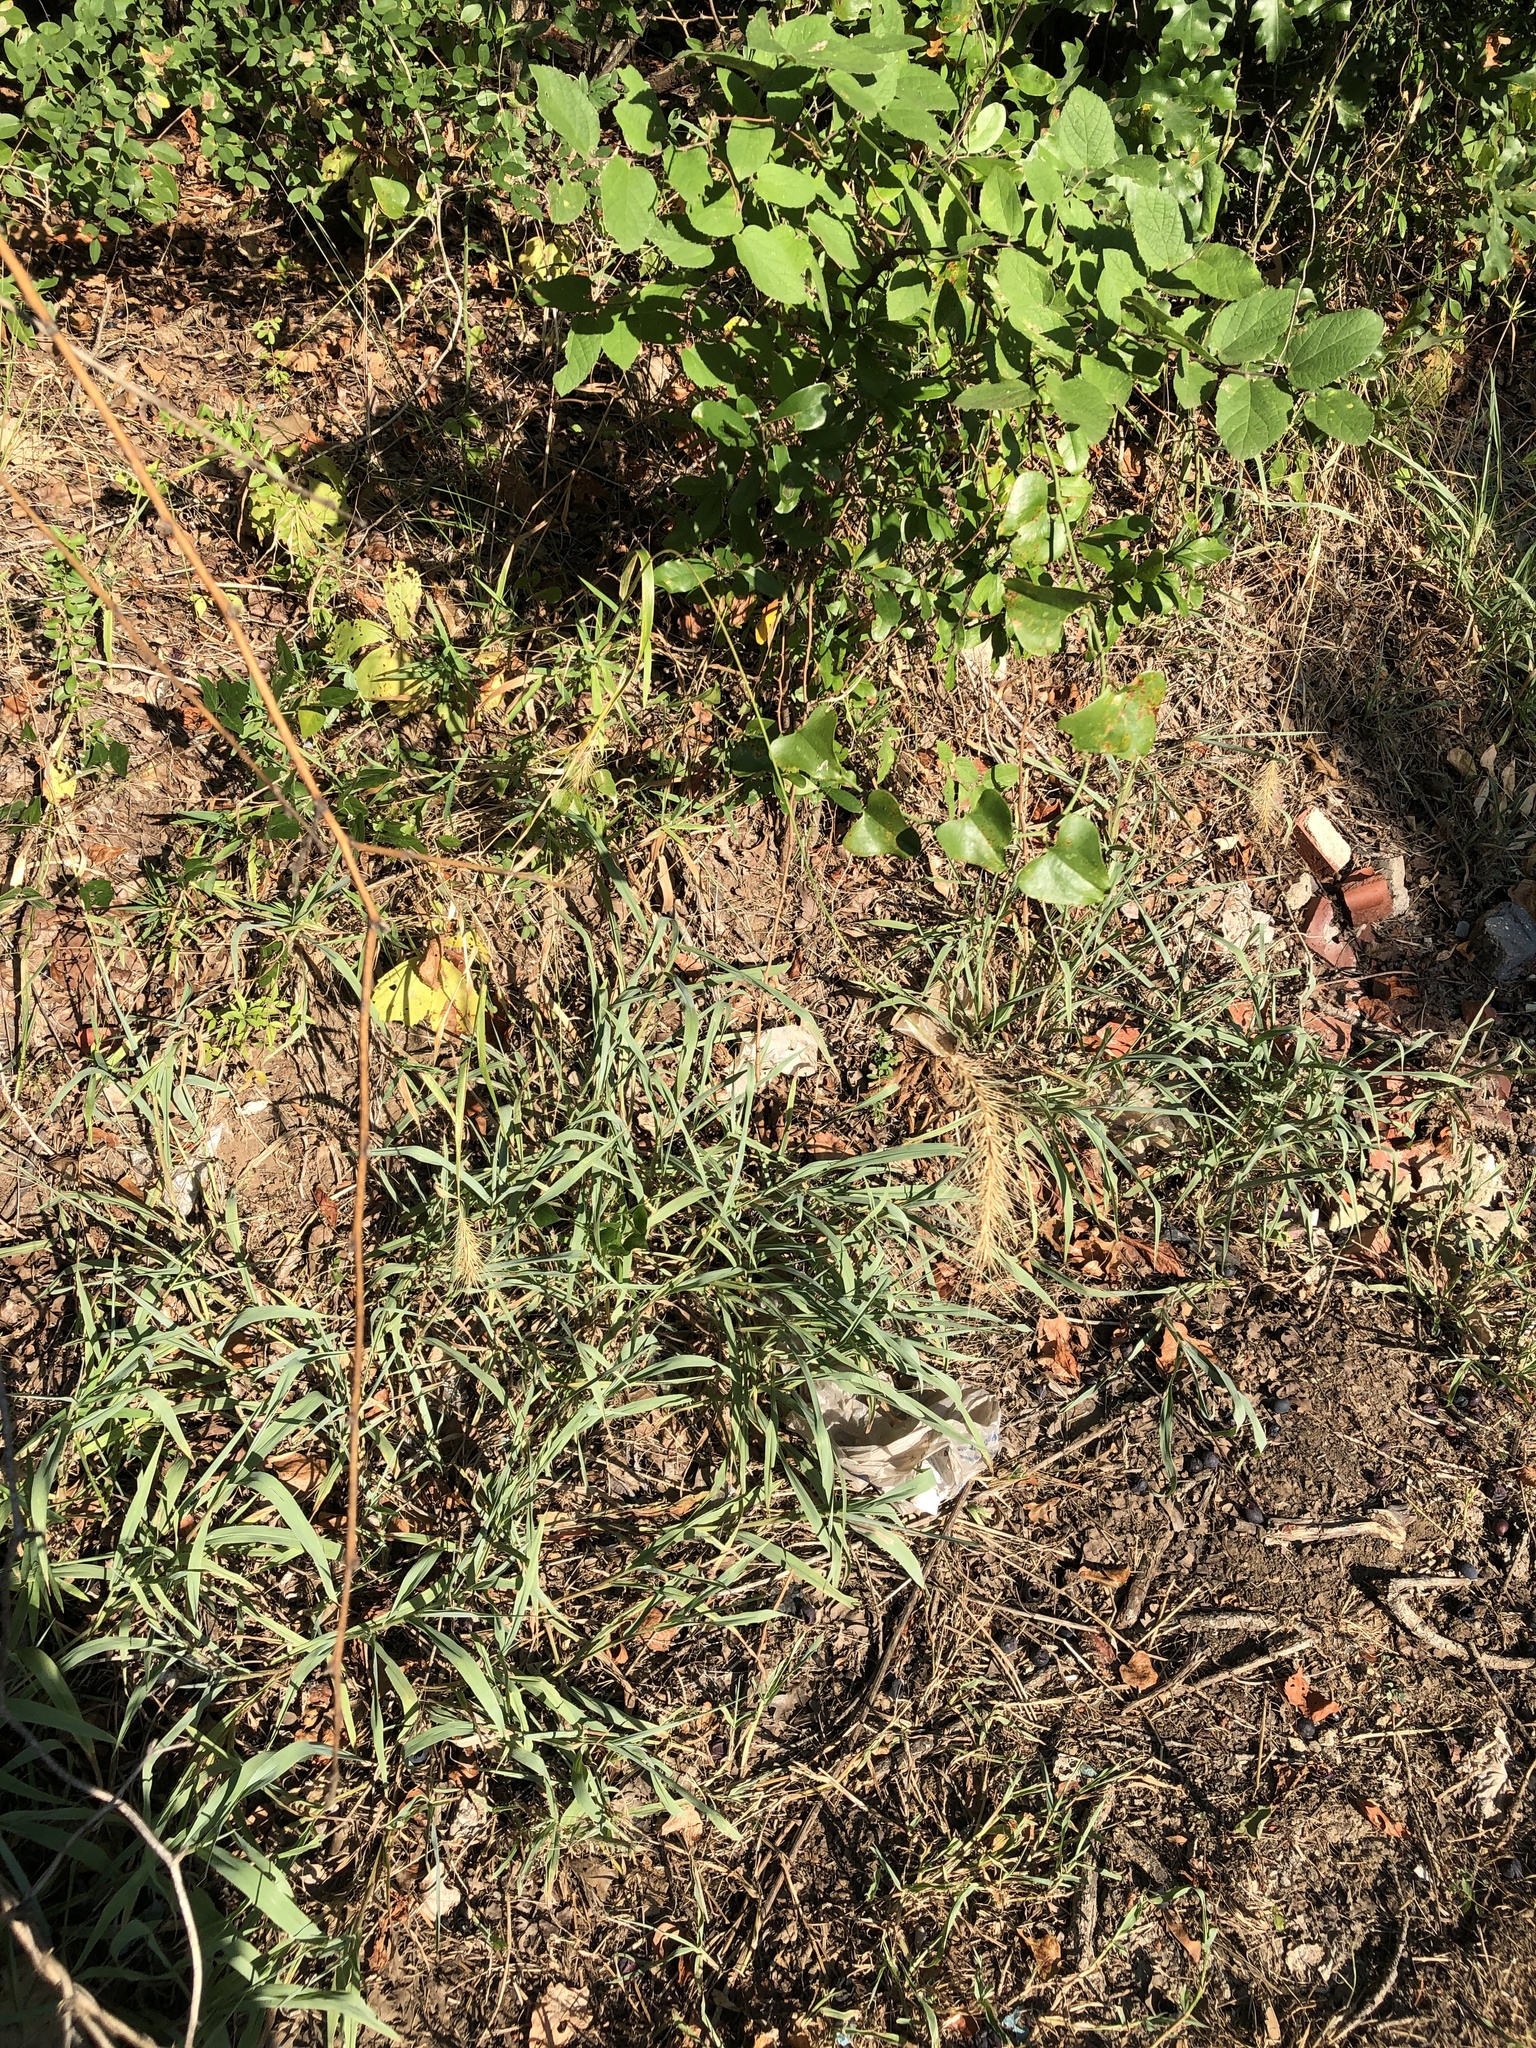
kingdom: Plantae
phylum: Tracheophyta
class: Liliopsida
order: Poales
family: Poaceae
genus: Elymus
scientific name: Elymus canadensis
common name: Canada wild rye
